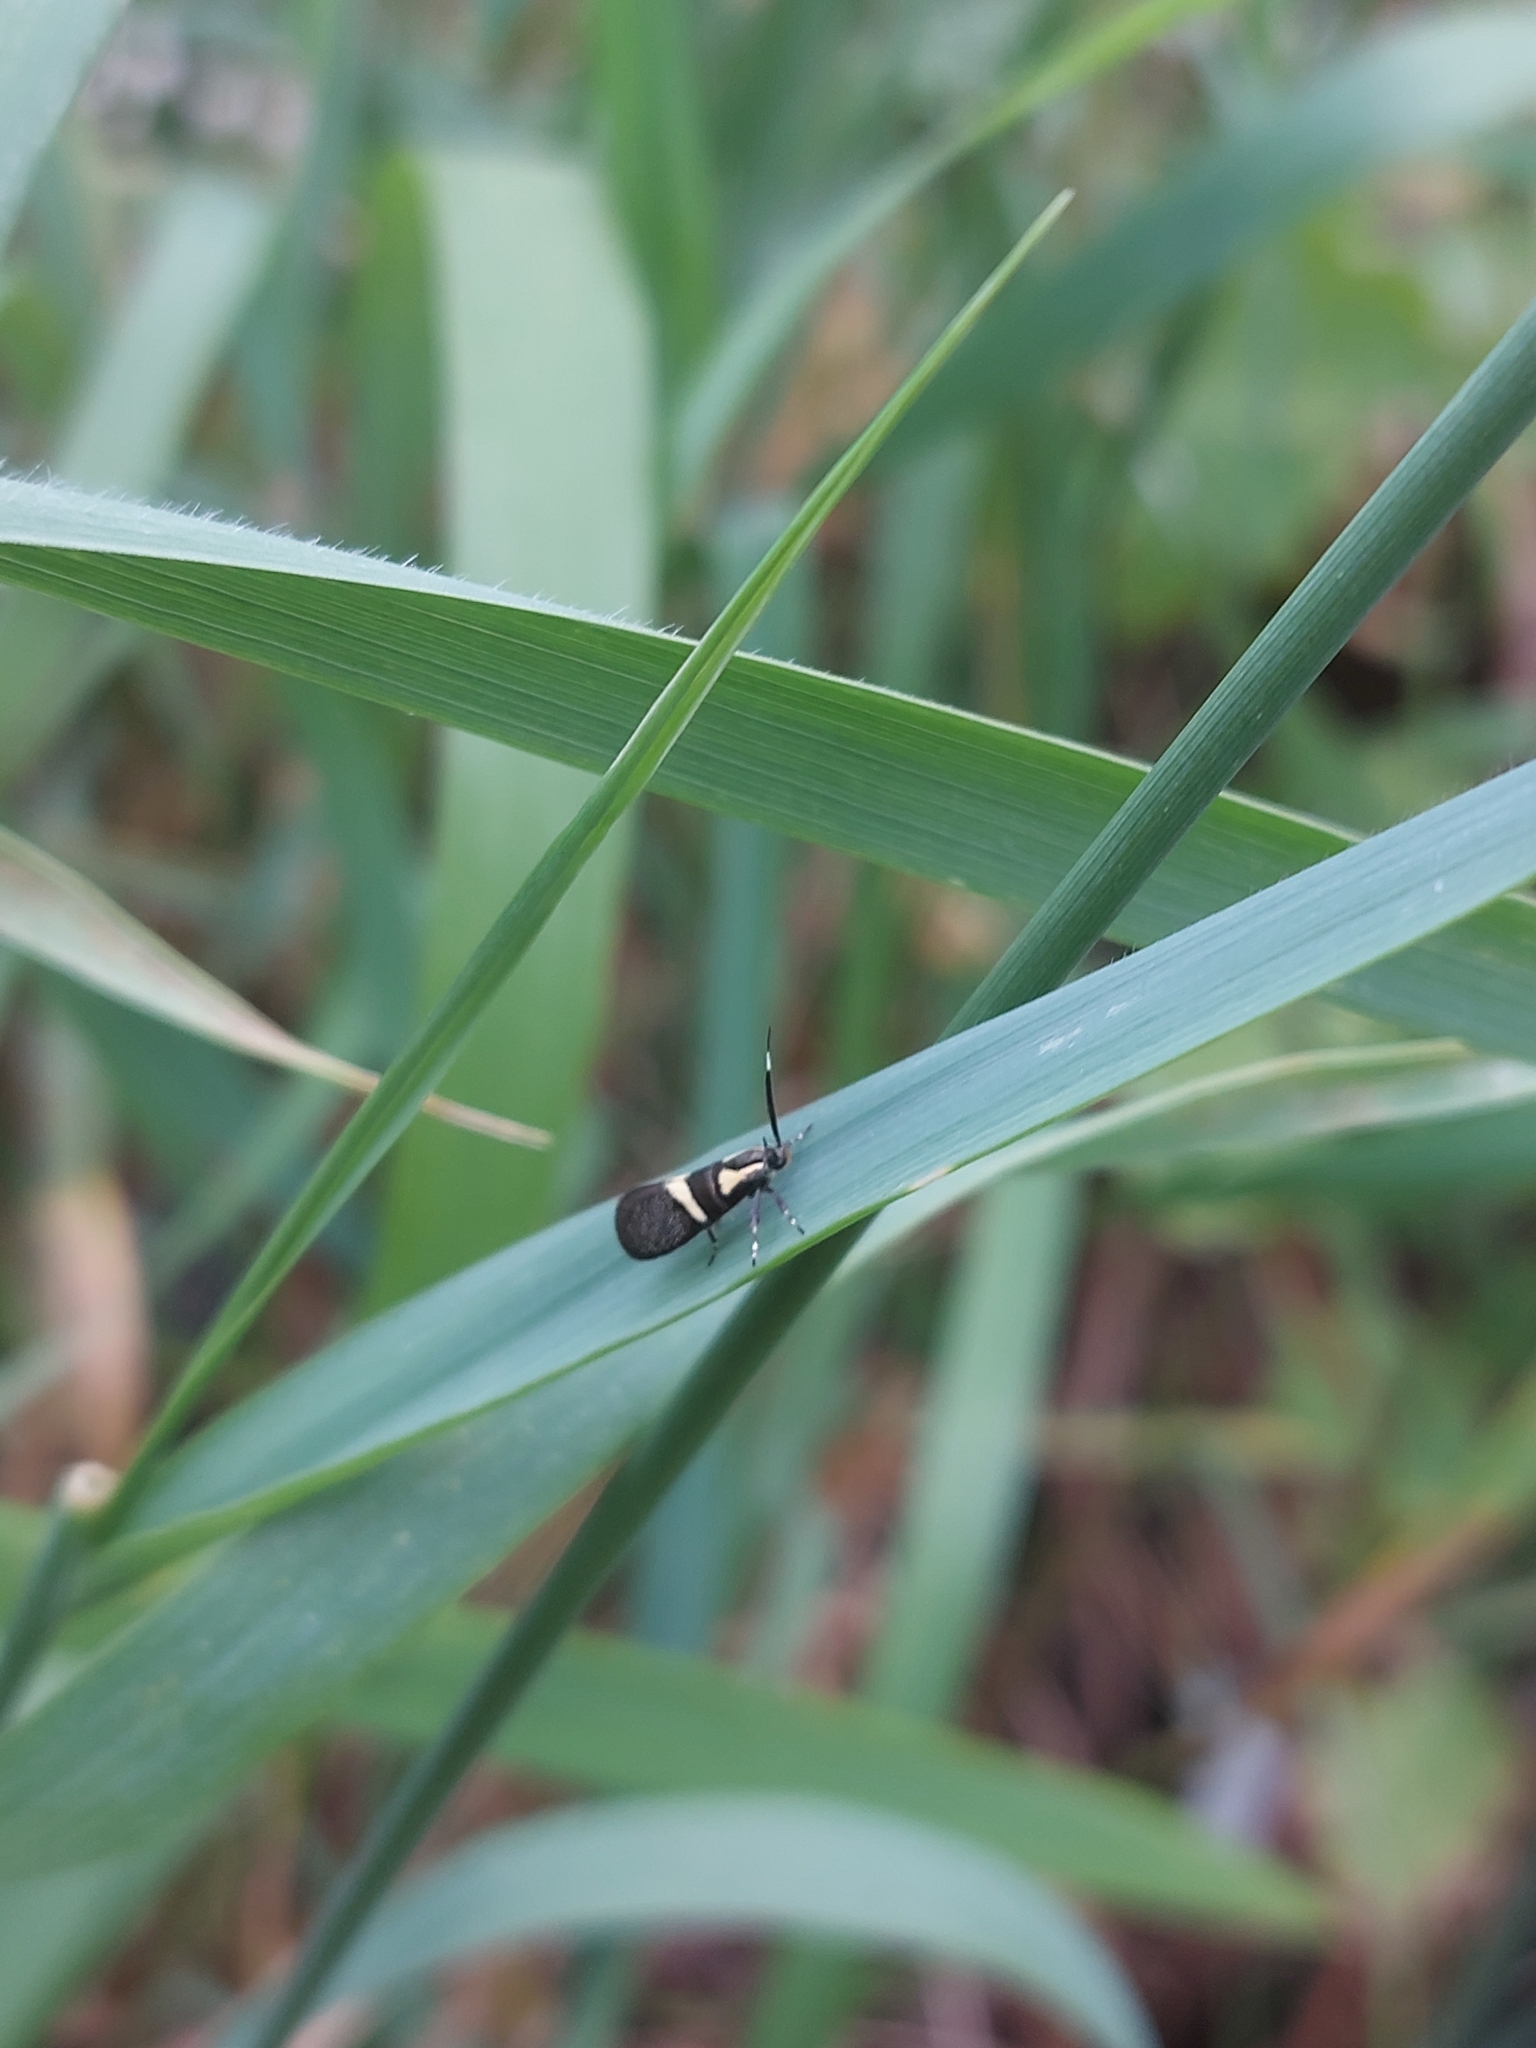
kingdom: Animalia
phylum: Arthropoda
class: Insecta
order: Lepidoptera
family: Oecophoridae
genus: Dafa
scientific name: Dafa oliviella
